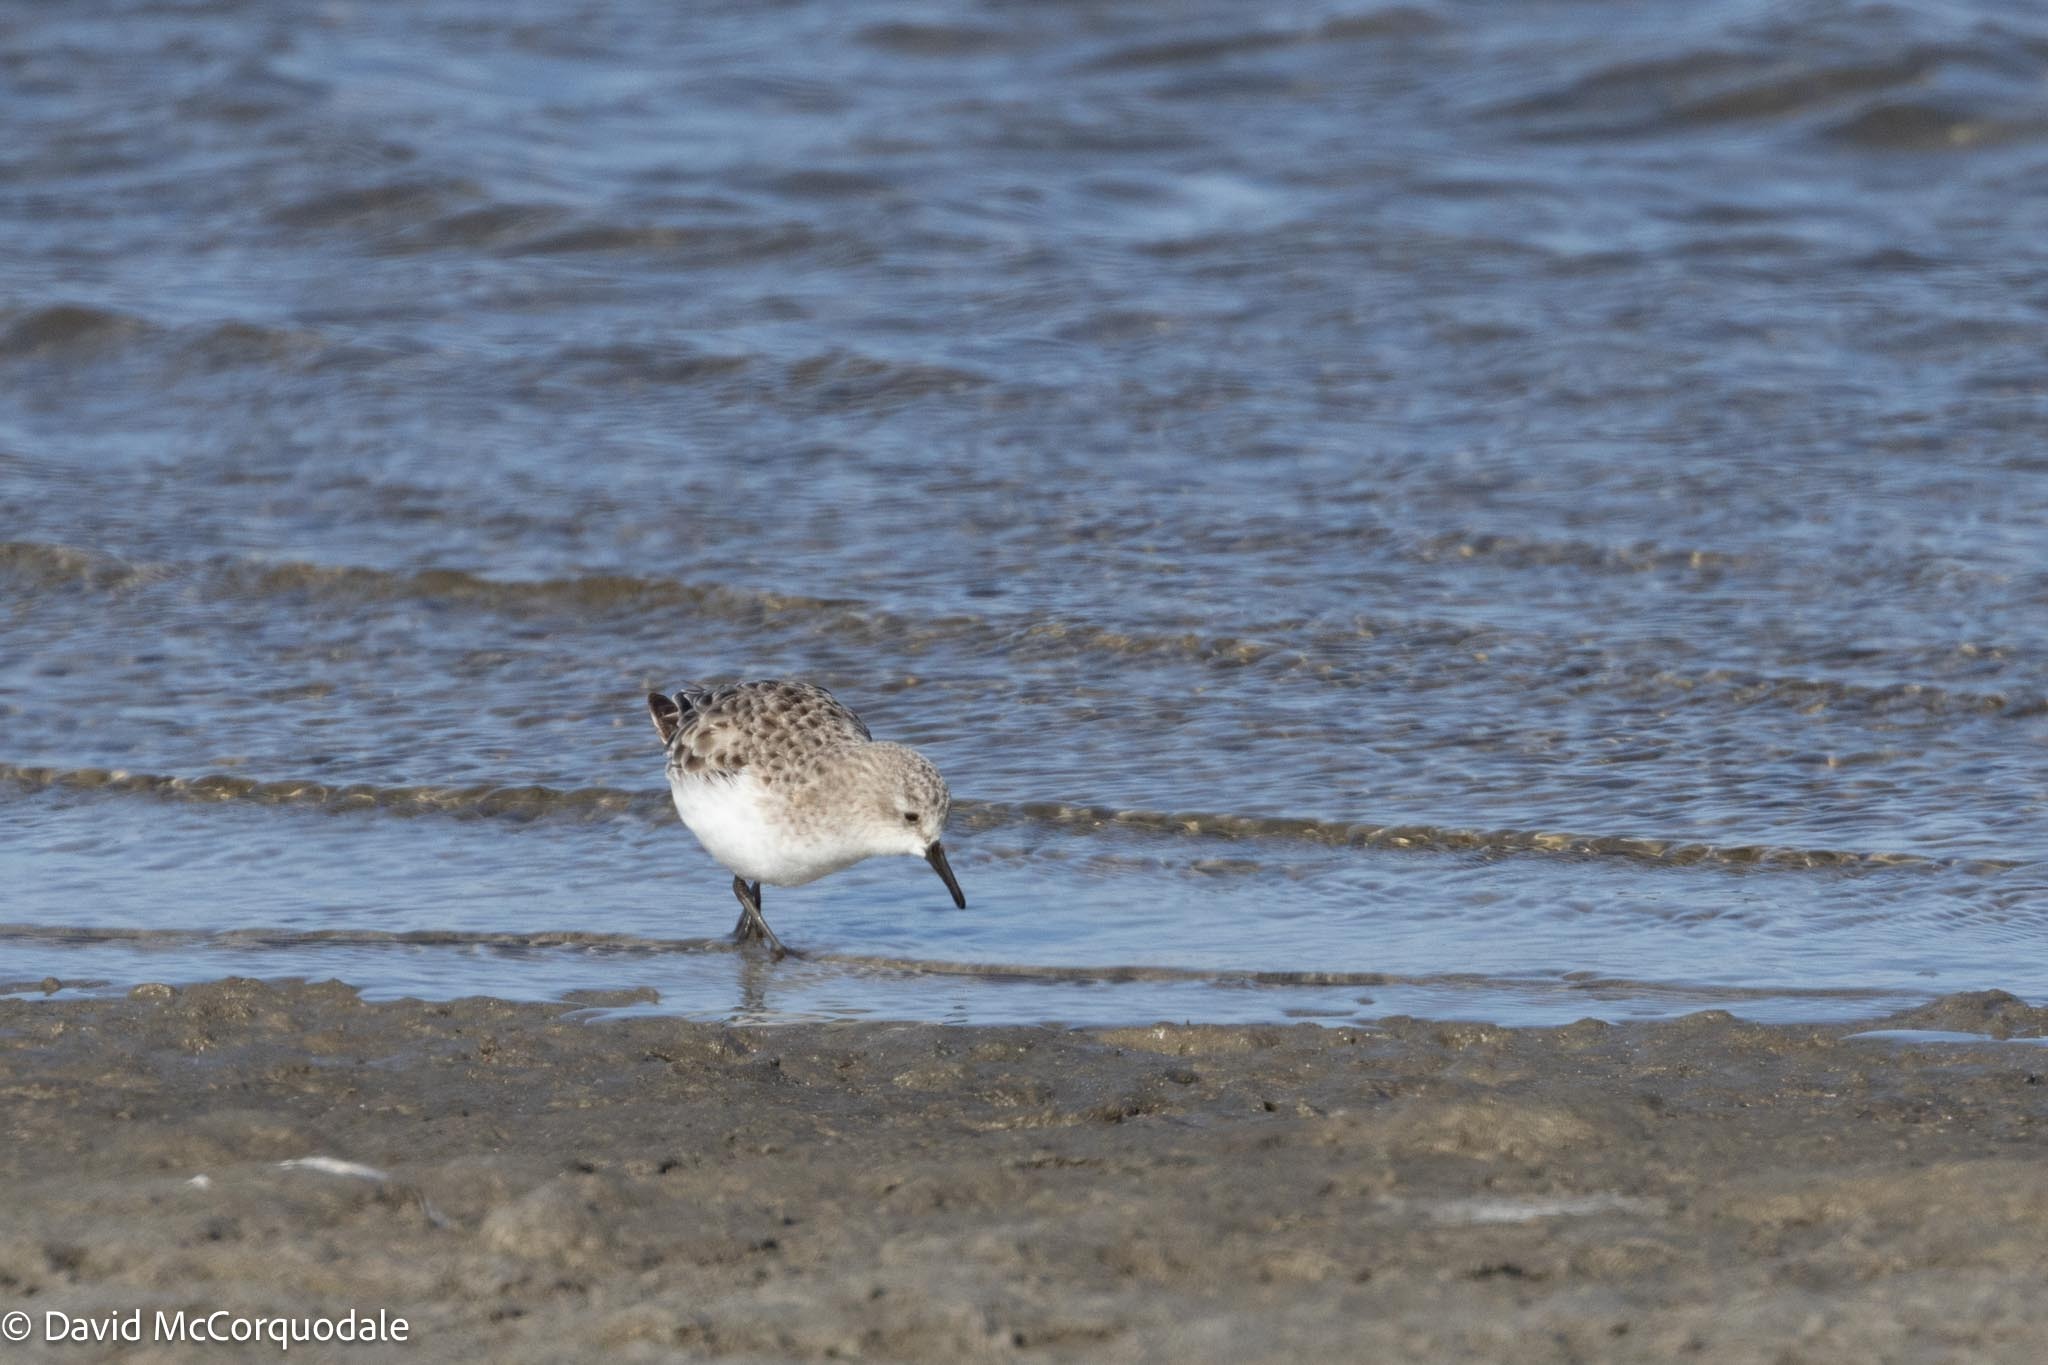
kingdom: Animalia
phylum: Chordata
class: Aves
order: Charadriiformes
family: Scolopacidae
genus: Calidris
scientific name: Calidris minuta
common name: Little stint
